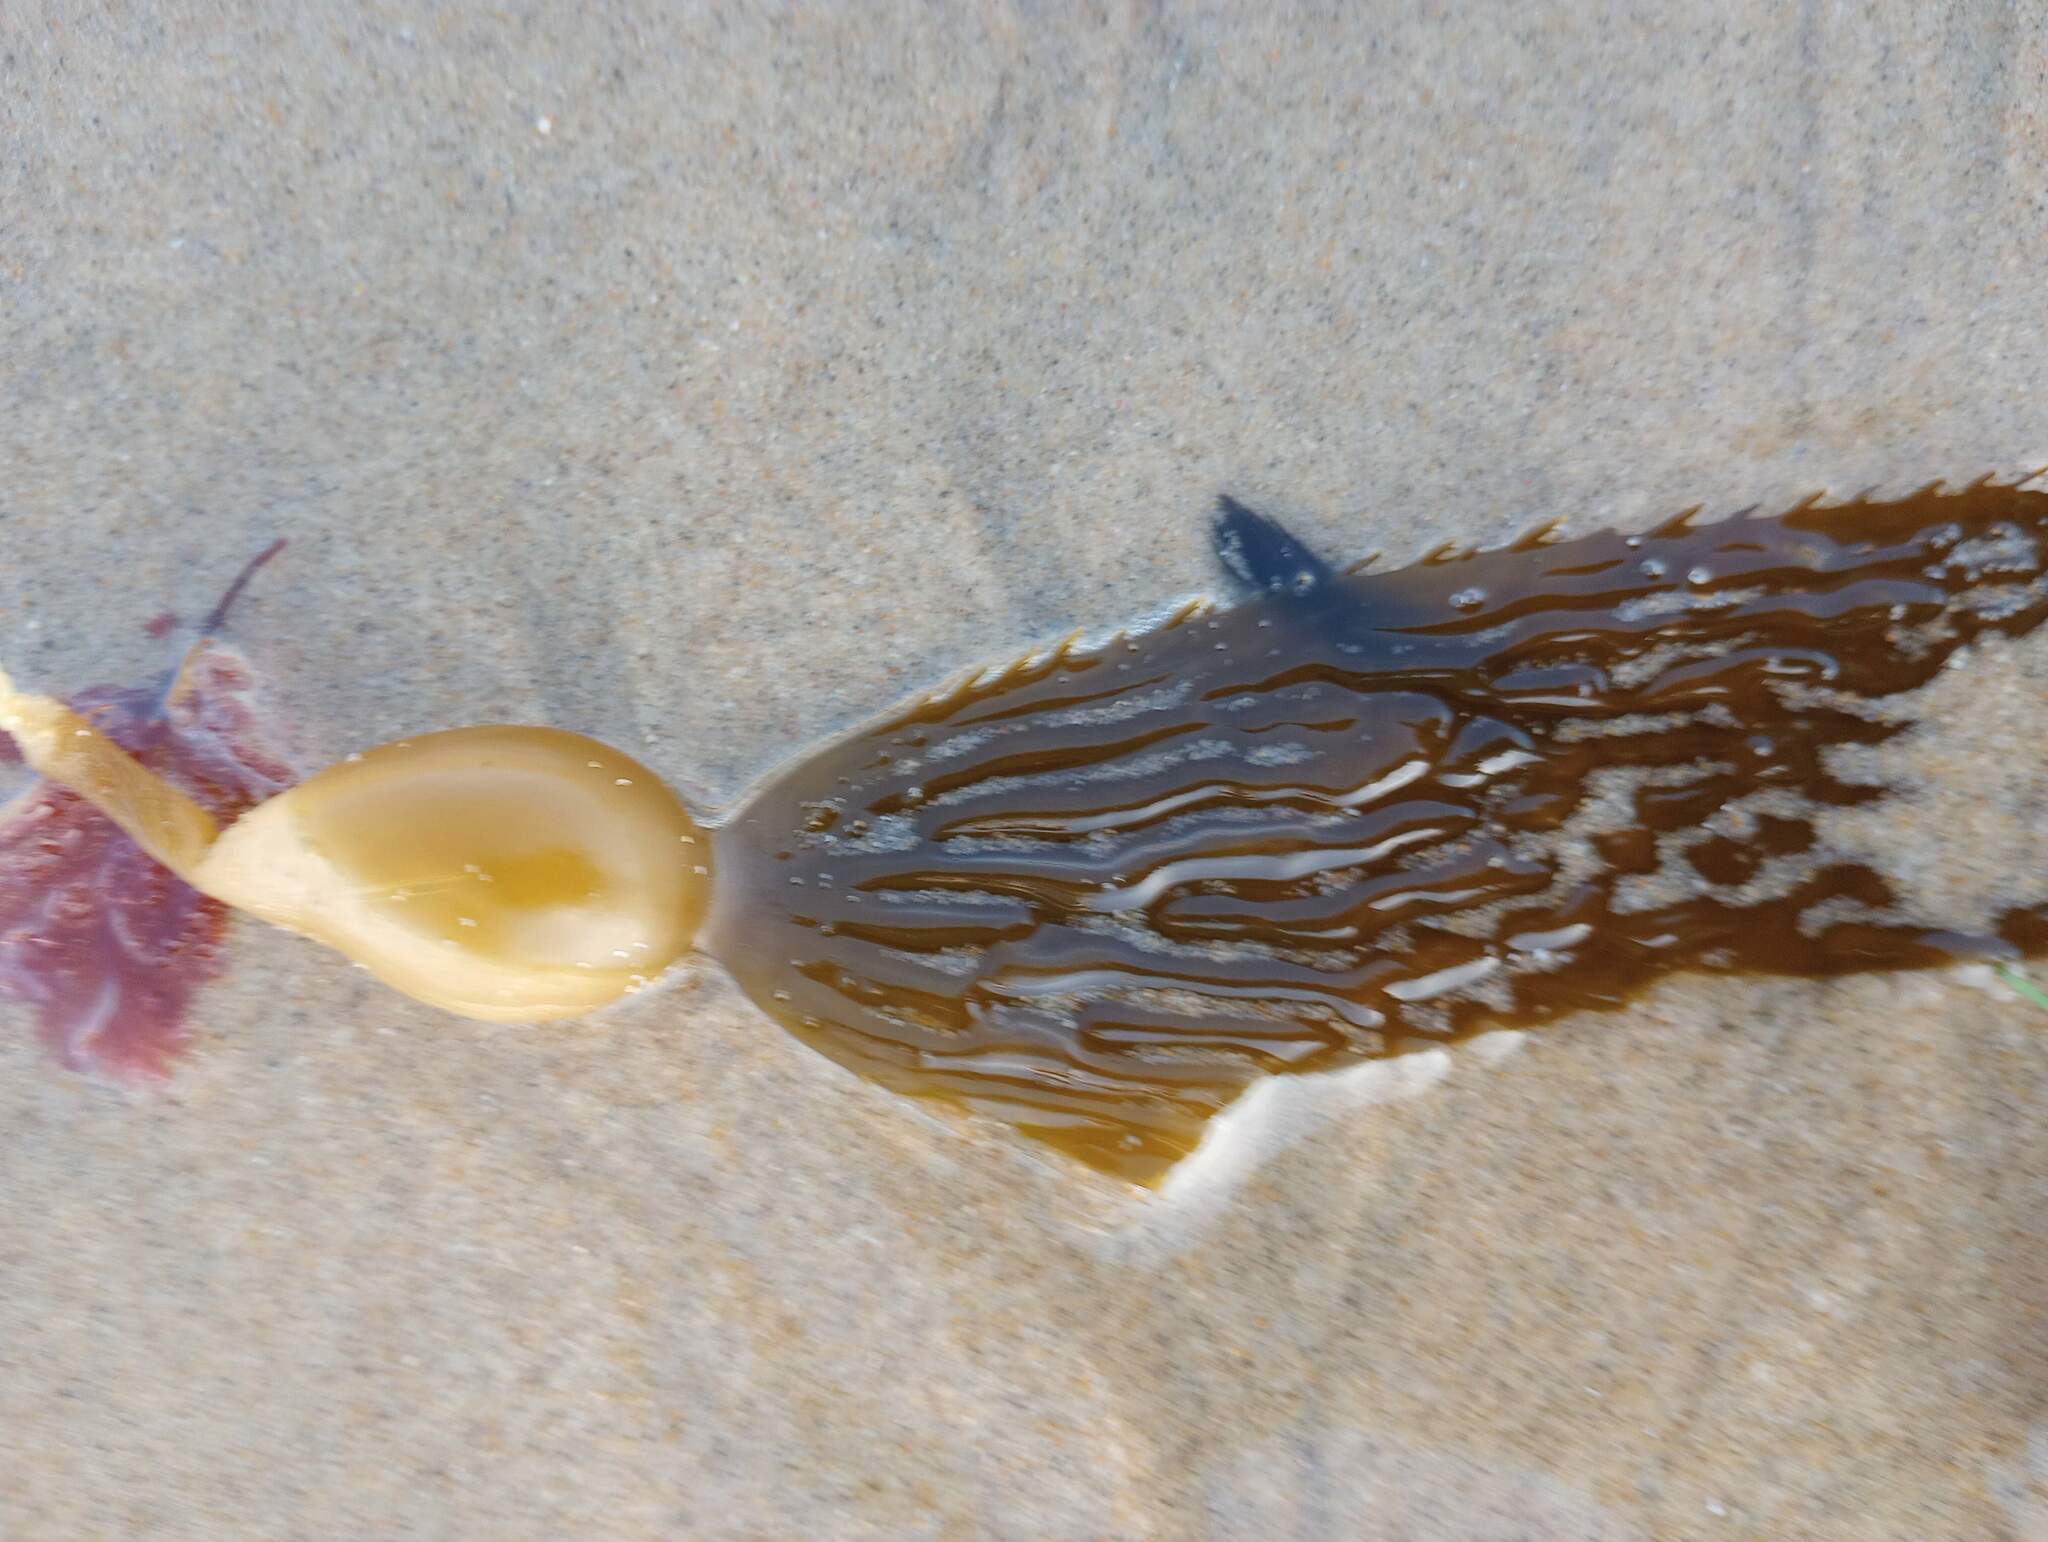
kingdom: Chromista
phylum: Ochrophyta
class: Phaeophyceae
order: Laminariales
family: Laminariaceae
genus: Macrocystis
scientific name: Macrocystis pyrifera
